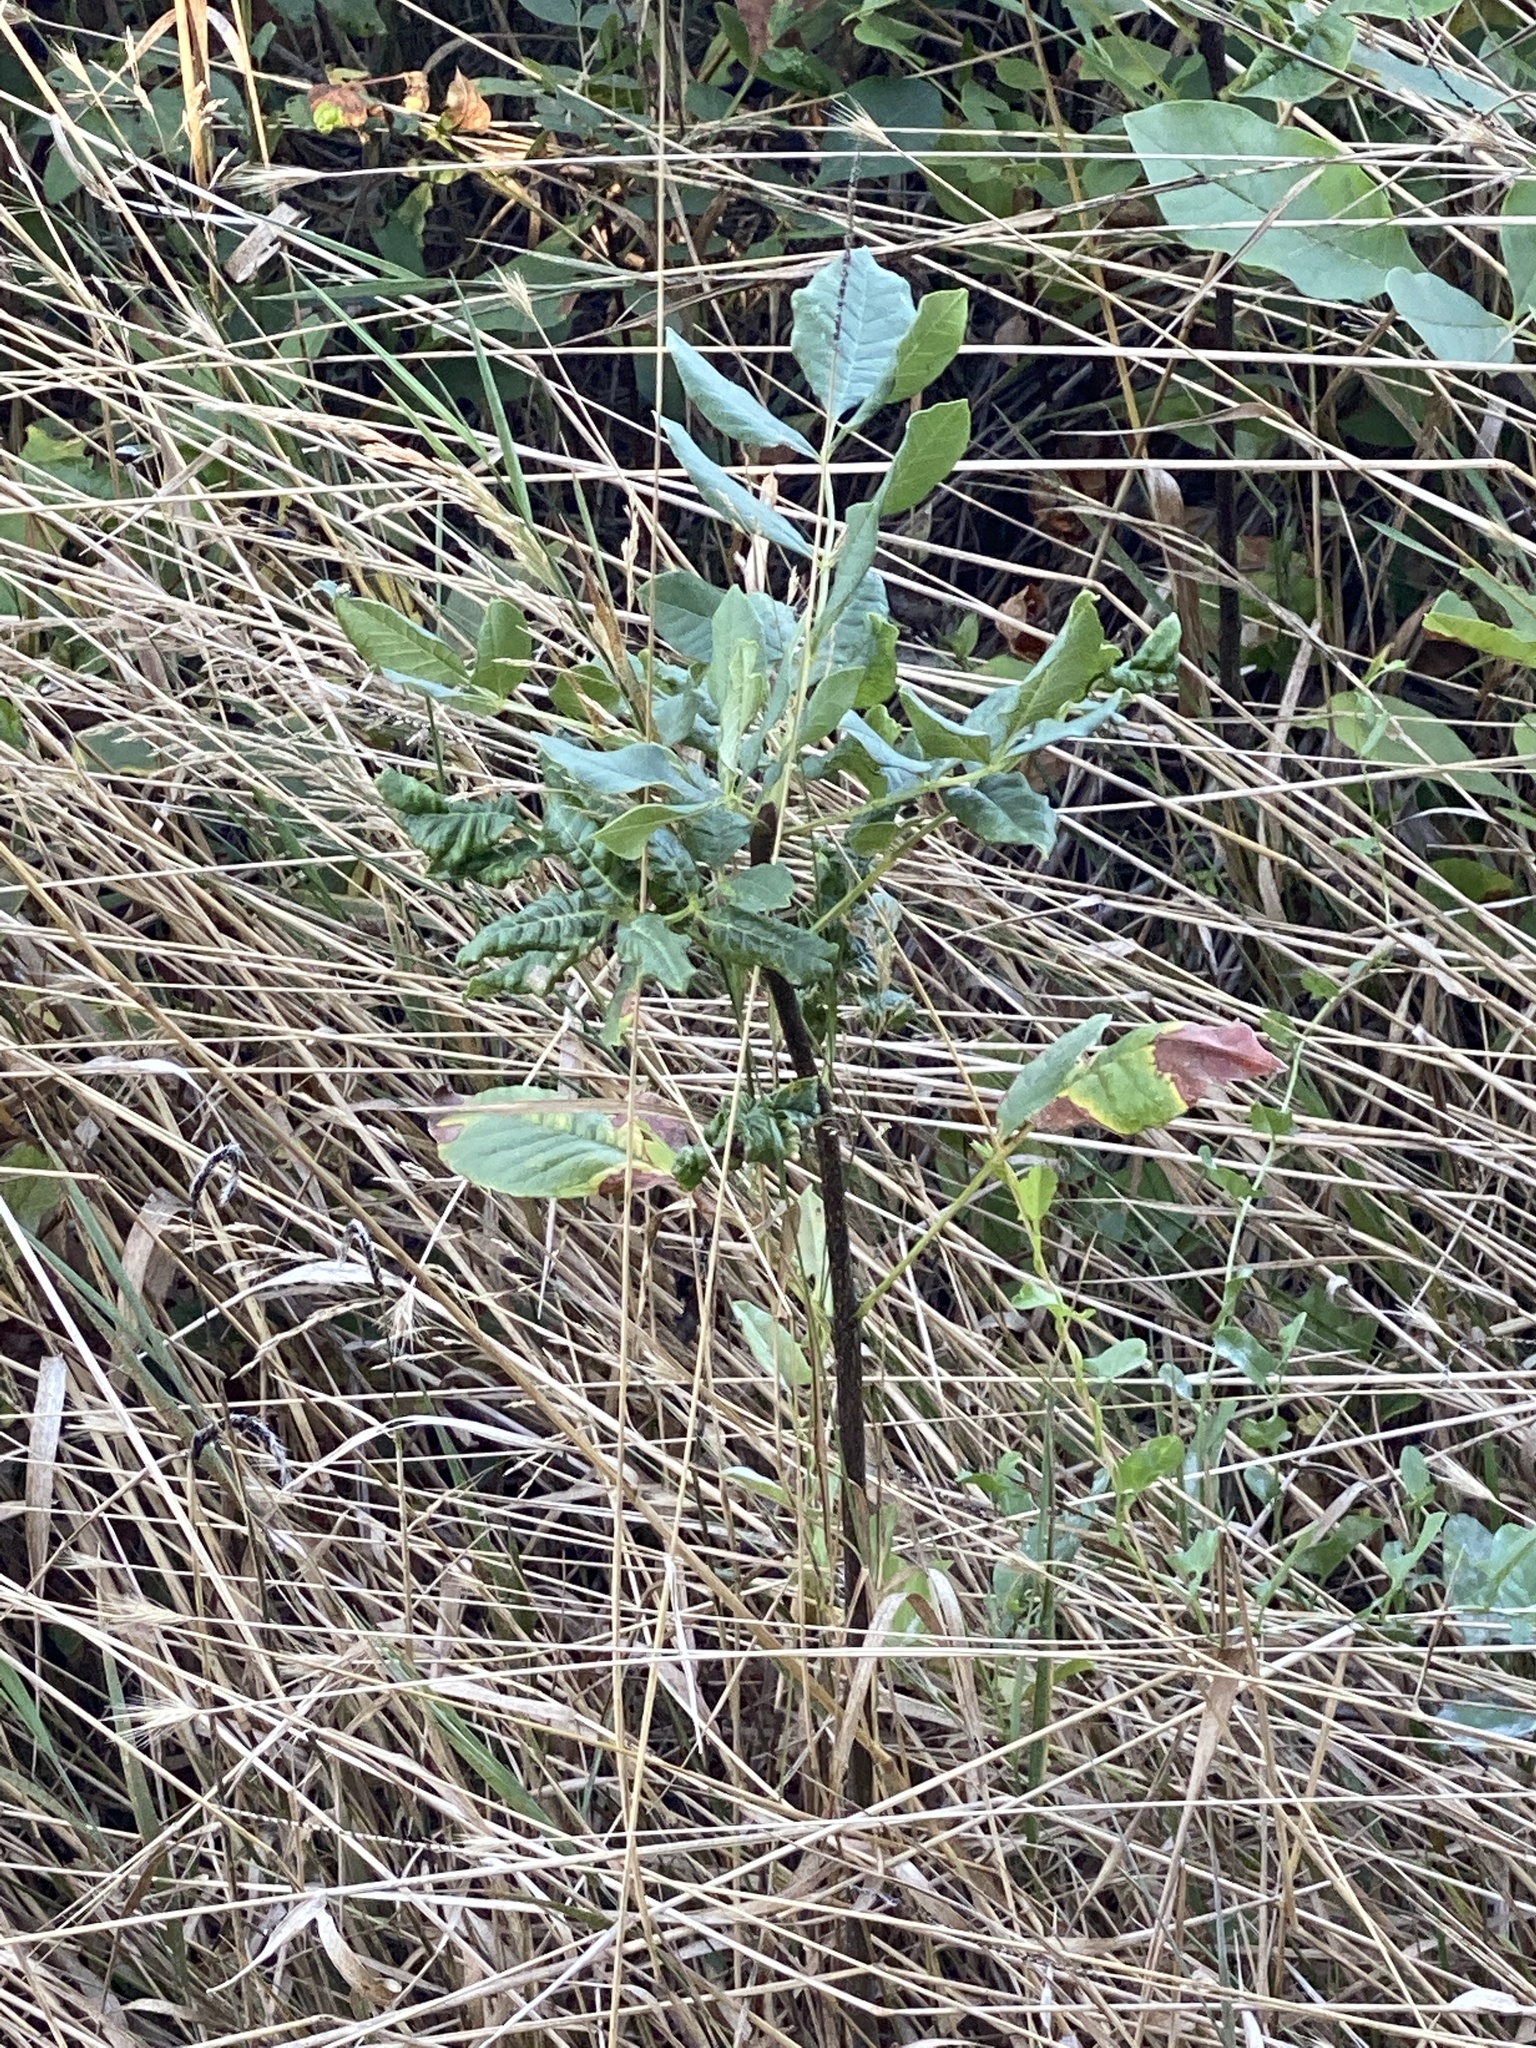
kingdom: Plantae
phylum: Tracheophyta
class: Magnoliopsida
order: Lamiales
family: Oleaceae
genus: Fraxinus
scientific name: Fraxinus latifolia
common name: Oregon ash
